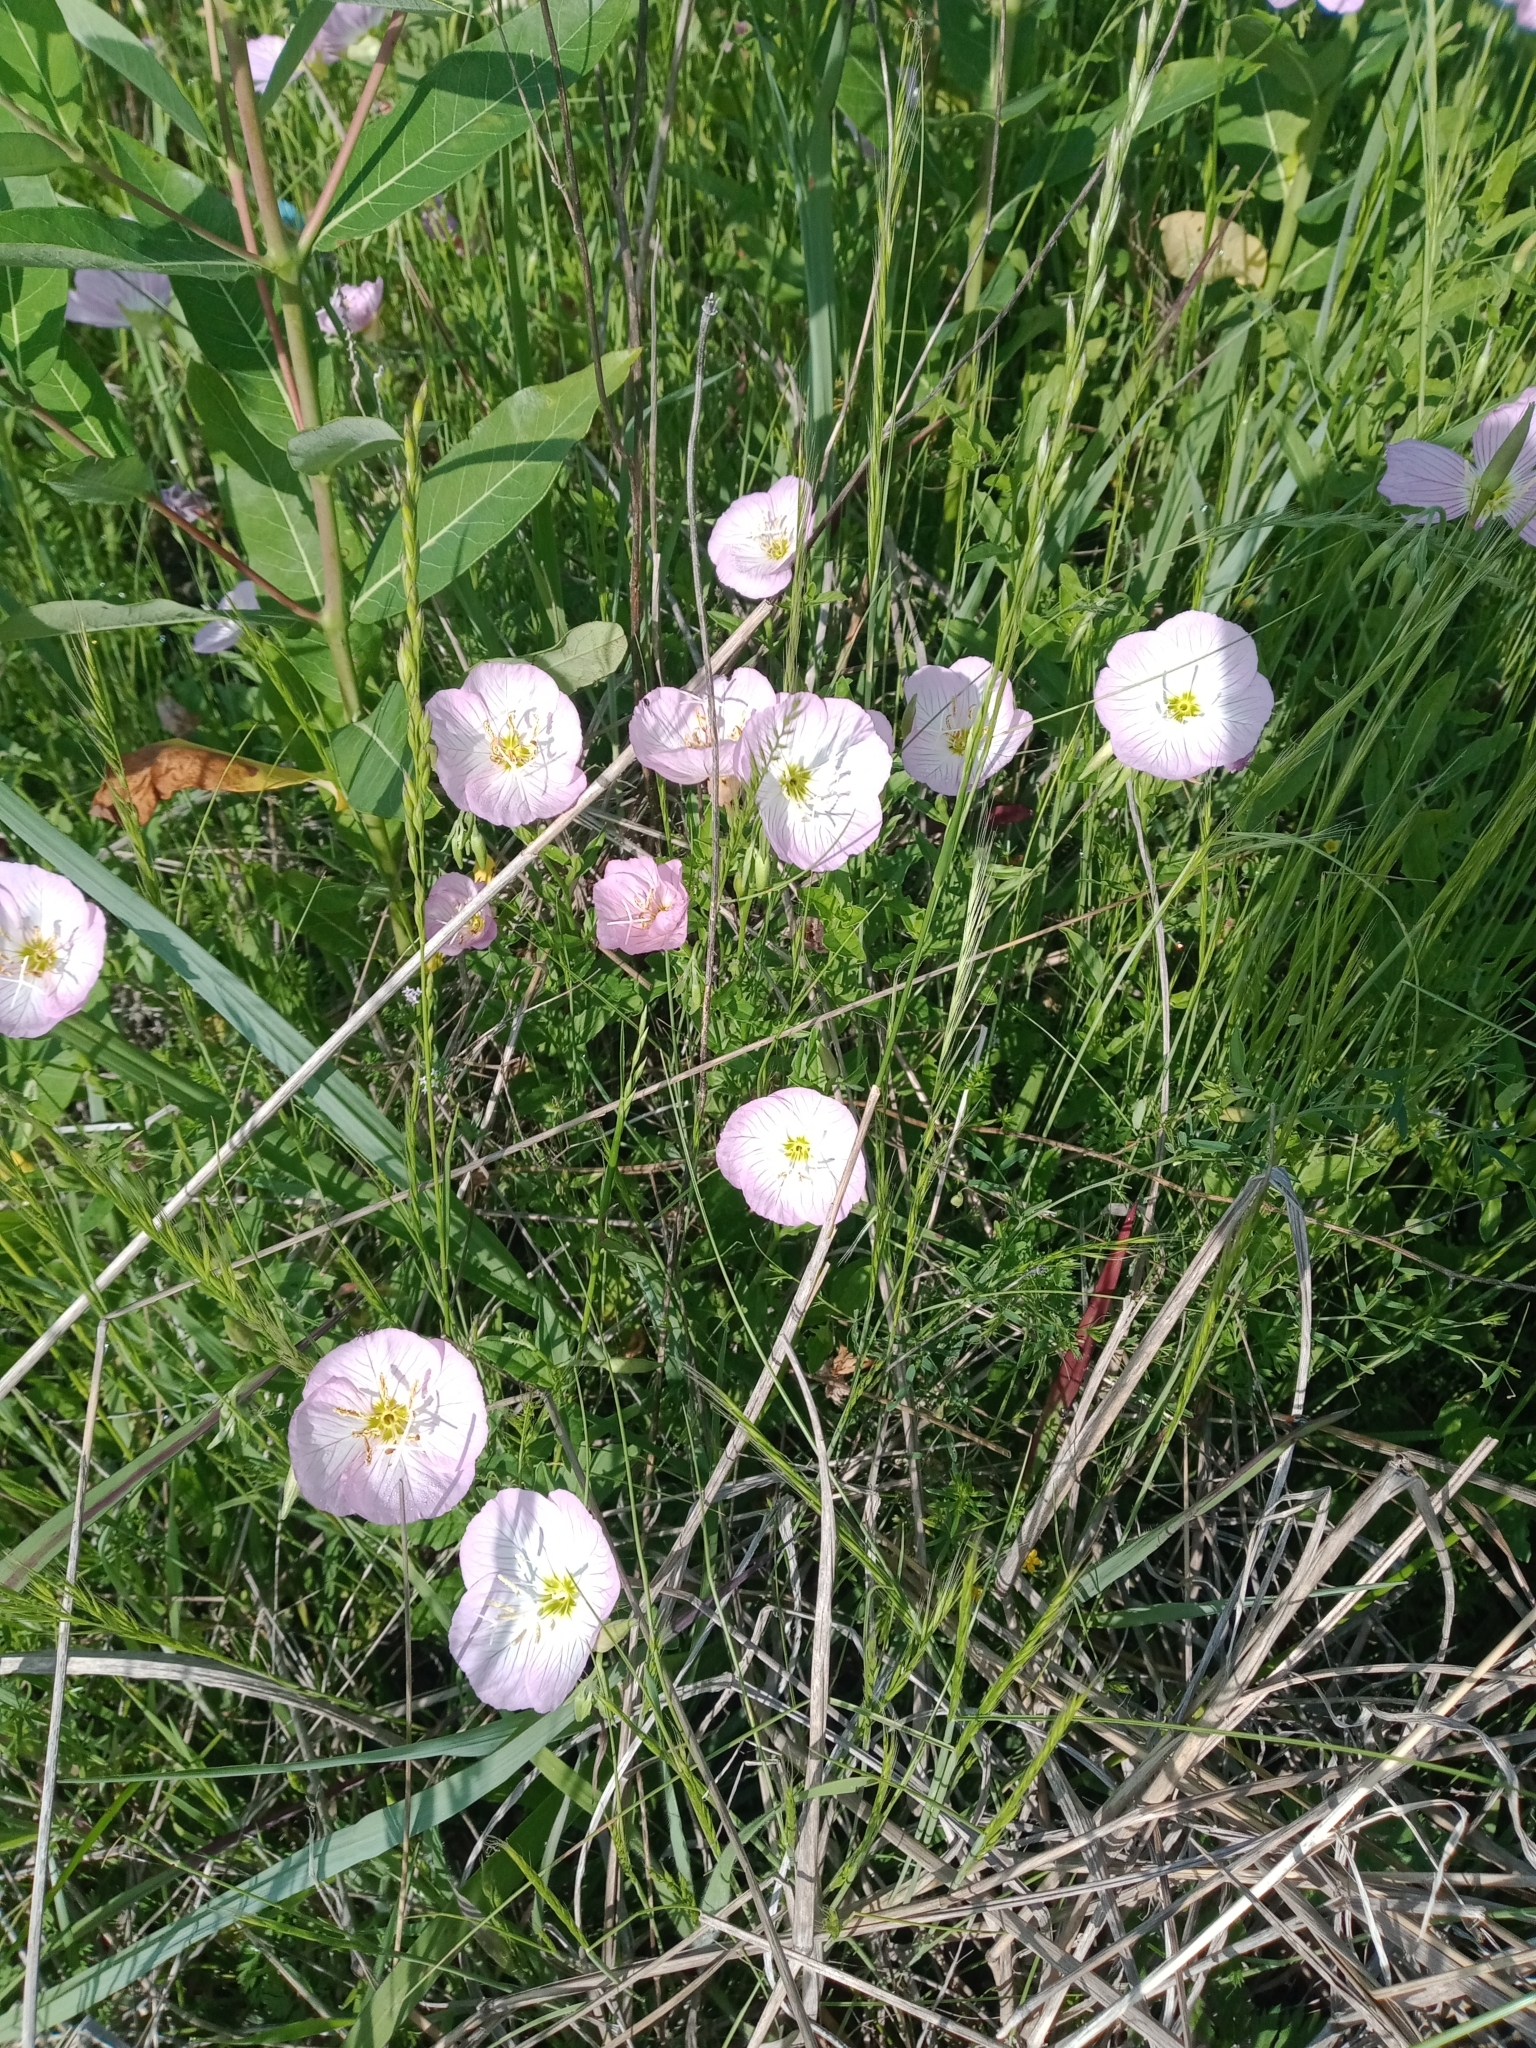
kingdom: Plantae
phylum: Tracheophyta
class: Magnoliopsida
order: Myrtales
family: Onagraceae
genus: Oenothera
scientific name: Oenothera speciosa
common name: White evening-primrose
